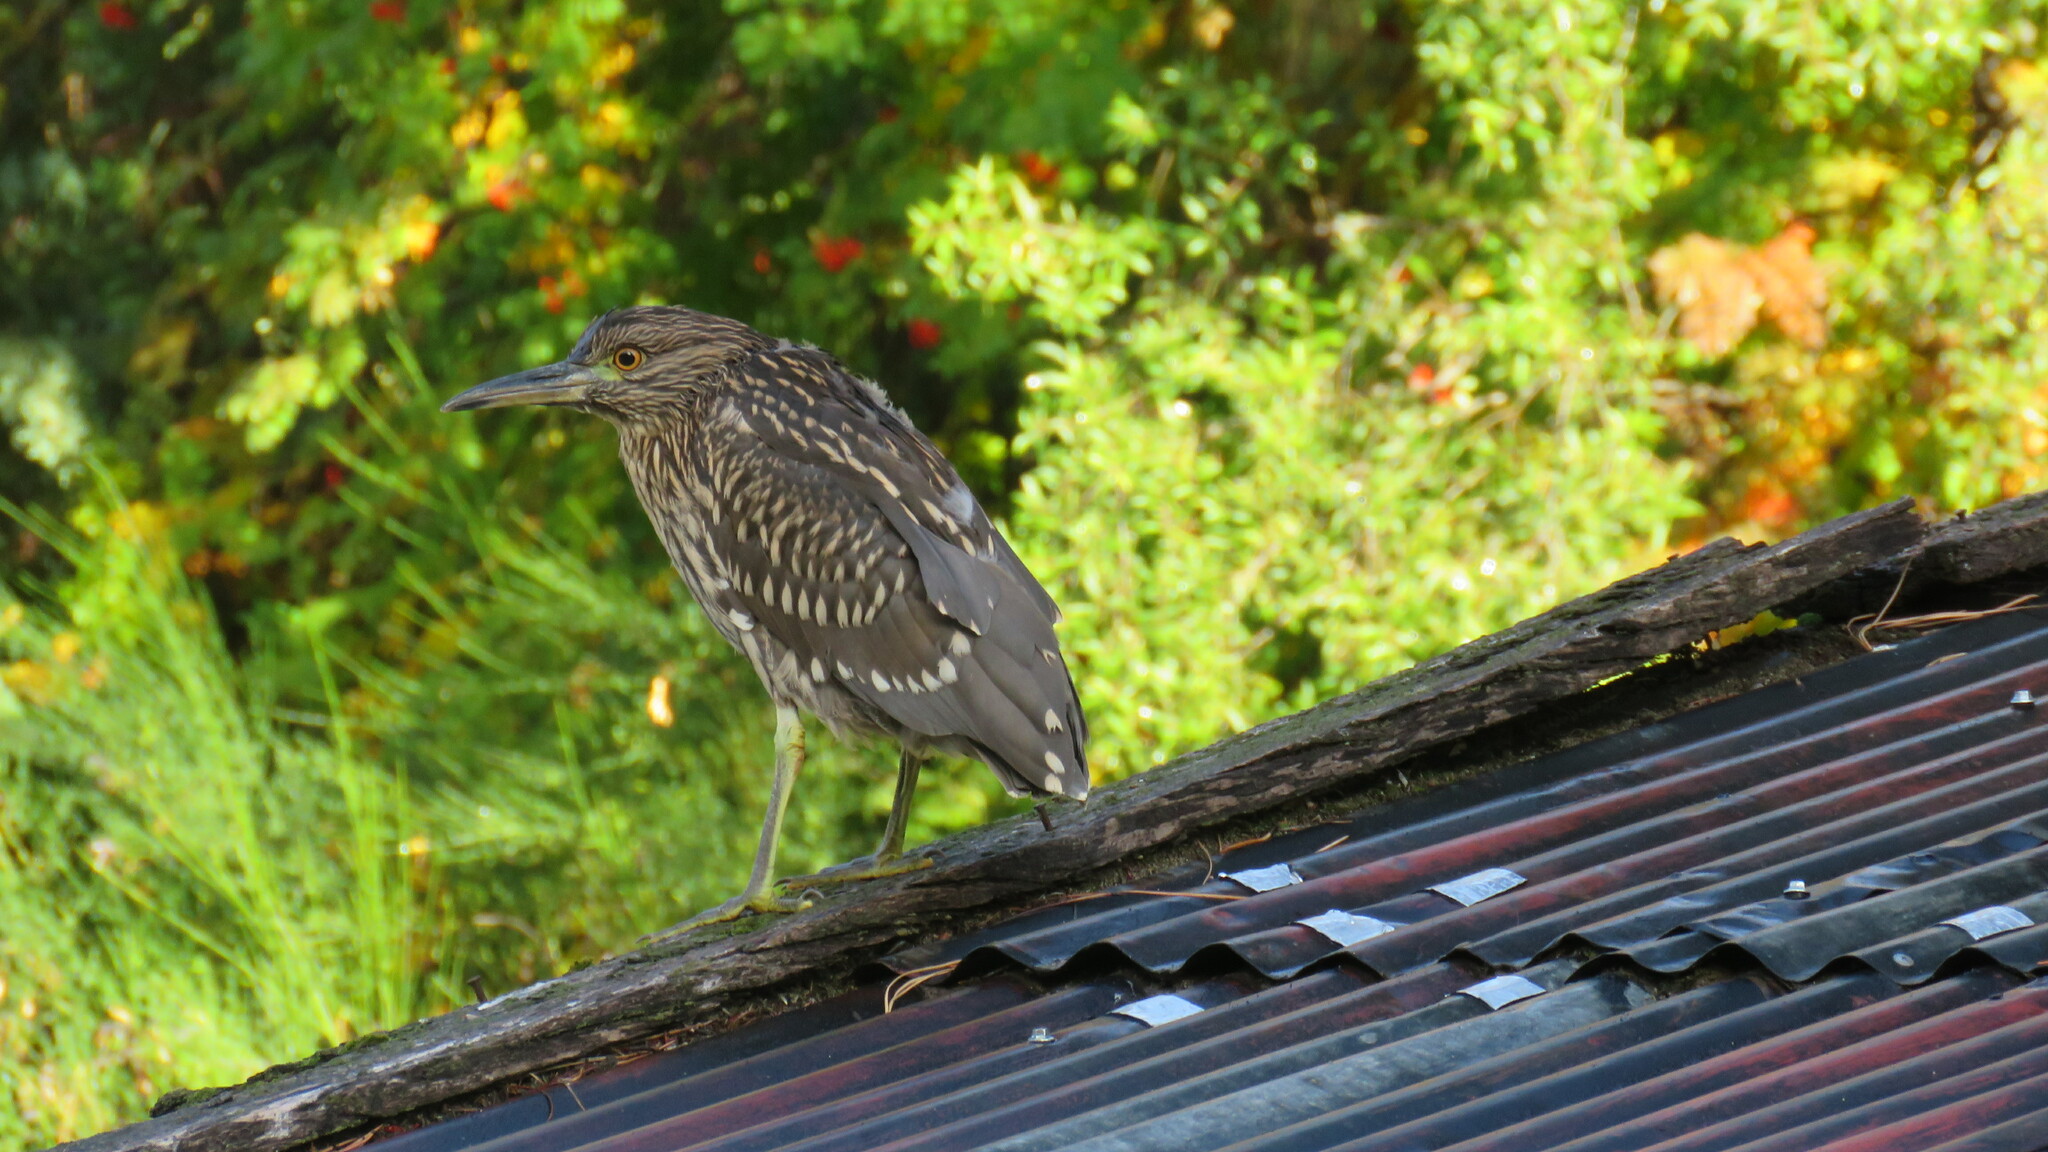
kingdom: Animalia
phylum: Chordata
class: Aves
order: Pelecaniformes
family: Ardeidae
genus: Nycticorax
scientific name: Nycticorax nycticorax
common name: Black-crowned night heron
